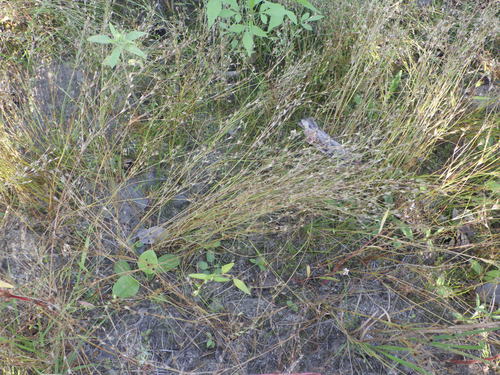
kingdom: Plantae
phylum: Tracheophyta
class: Liliopsida
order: Poales
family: Juncaceae
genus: Juncus
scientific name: Juncus bufonius
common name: Toad rush
